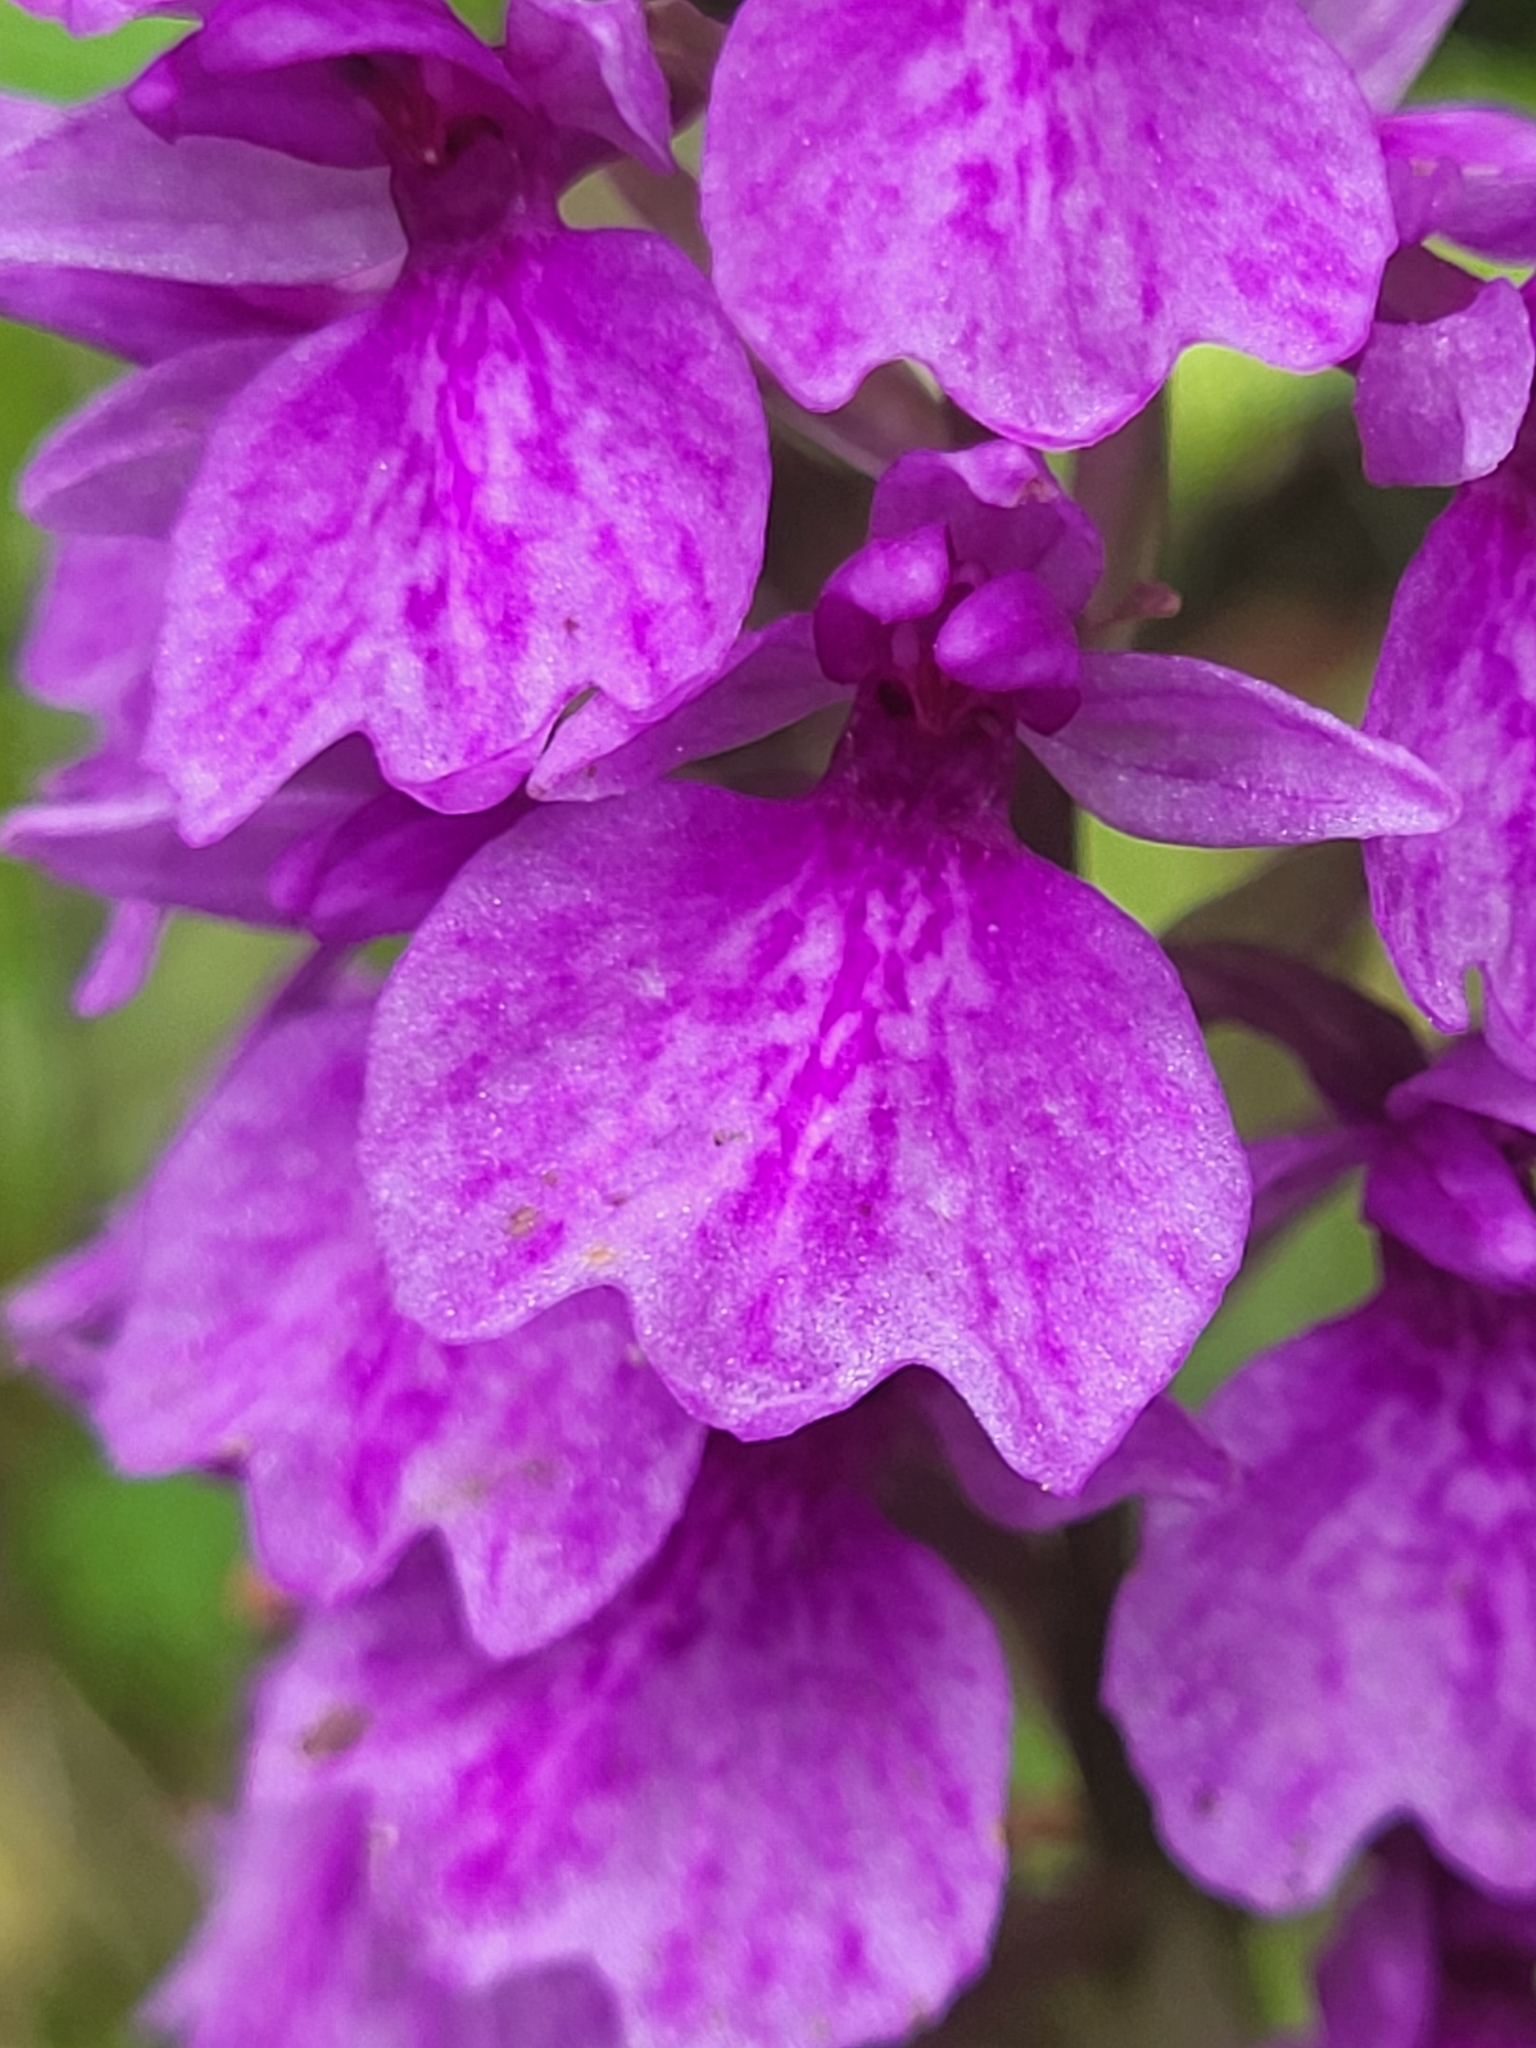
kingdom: Plantae
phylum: Tracheophyta
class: Liliopsida
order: Asparagales
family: Orchidaceae
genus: Dactylorhiza
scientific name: Dactylorhiza foliosa
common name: Richly-leaved dactylorhiza
